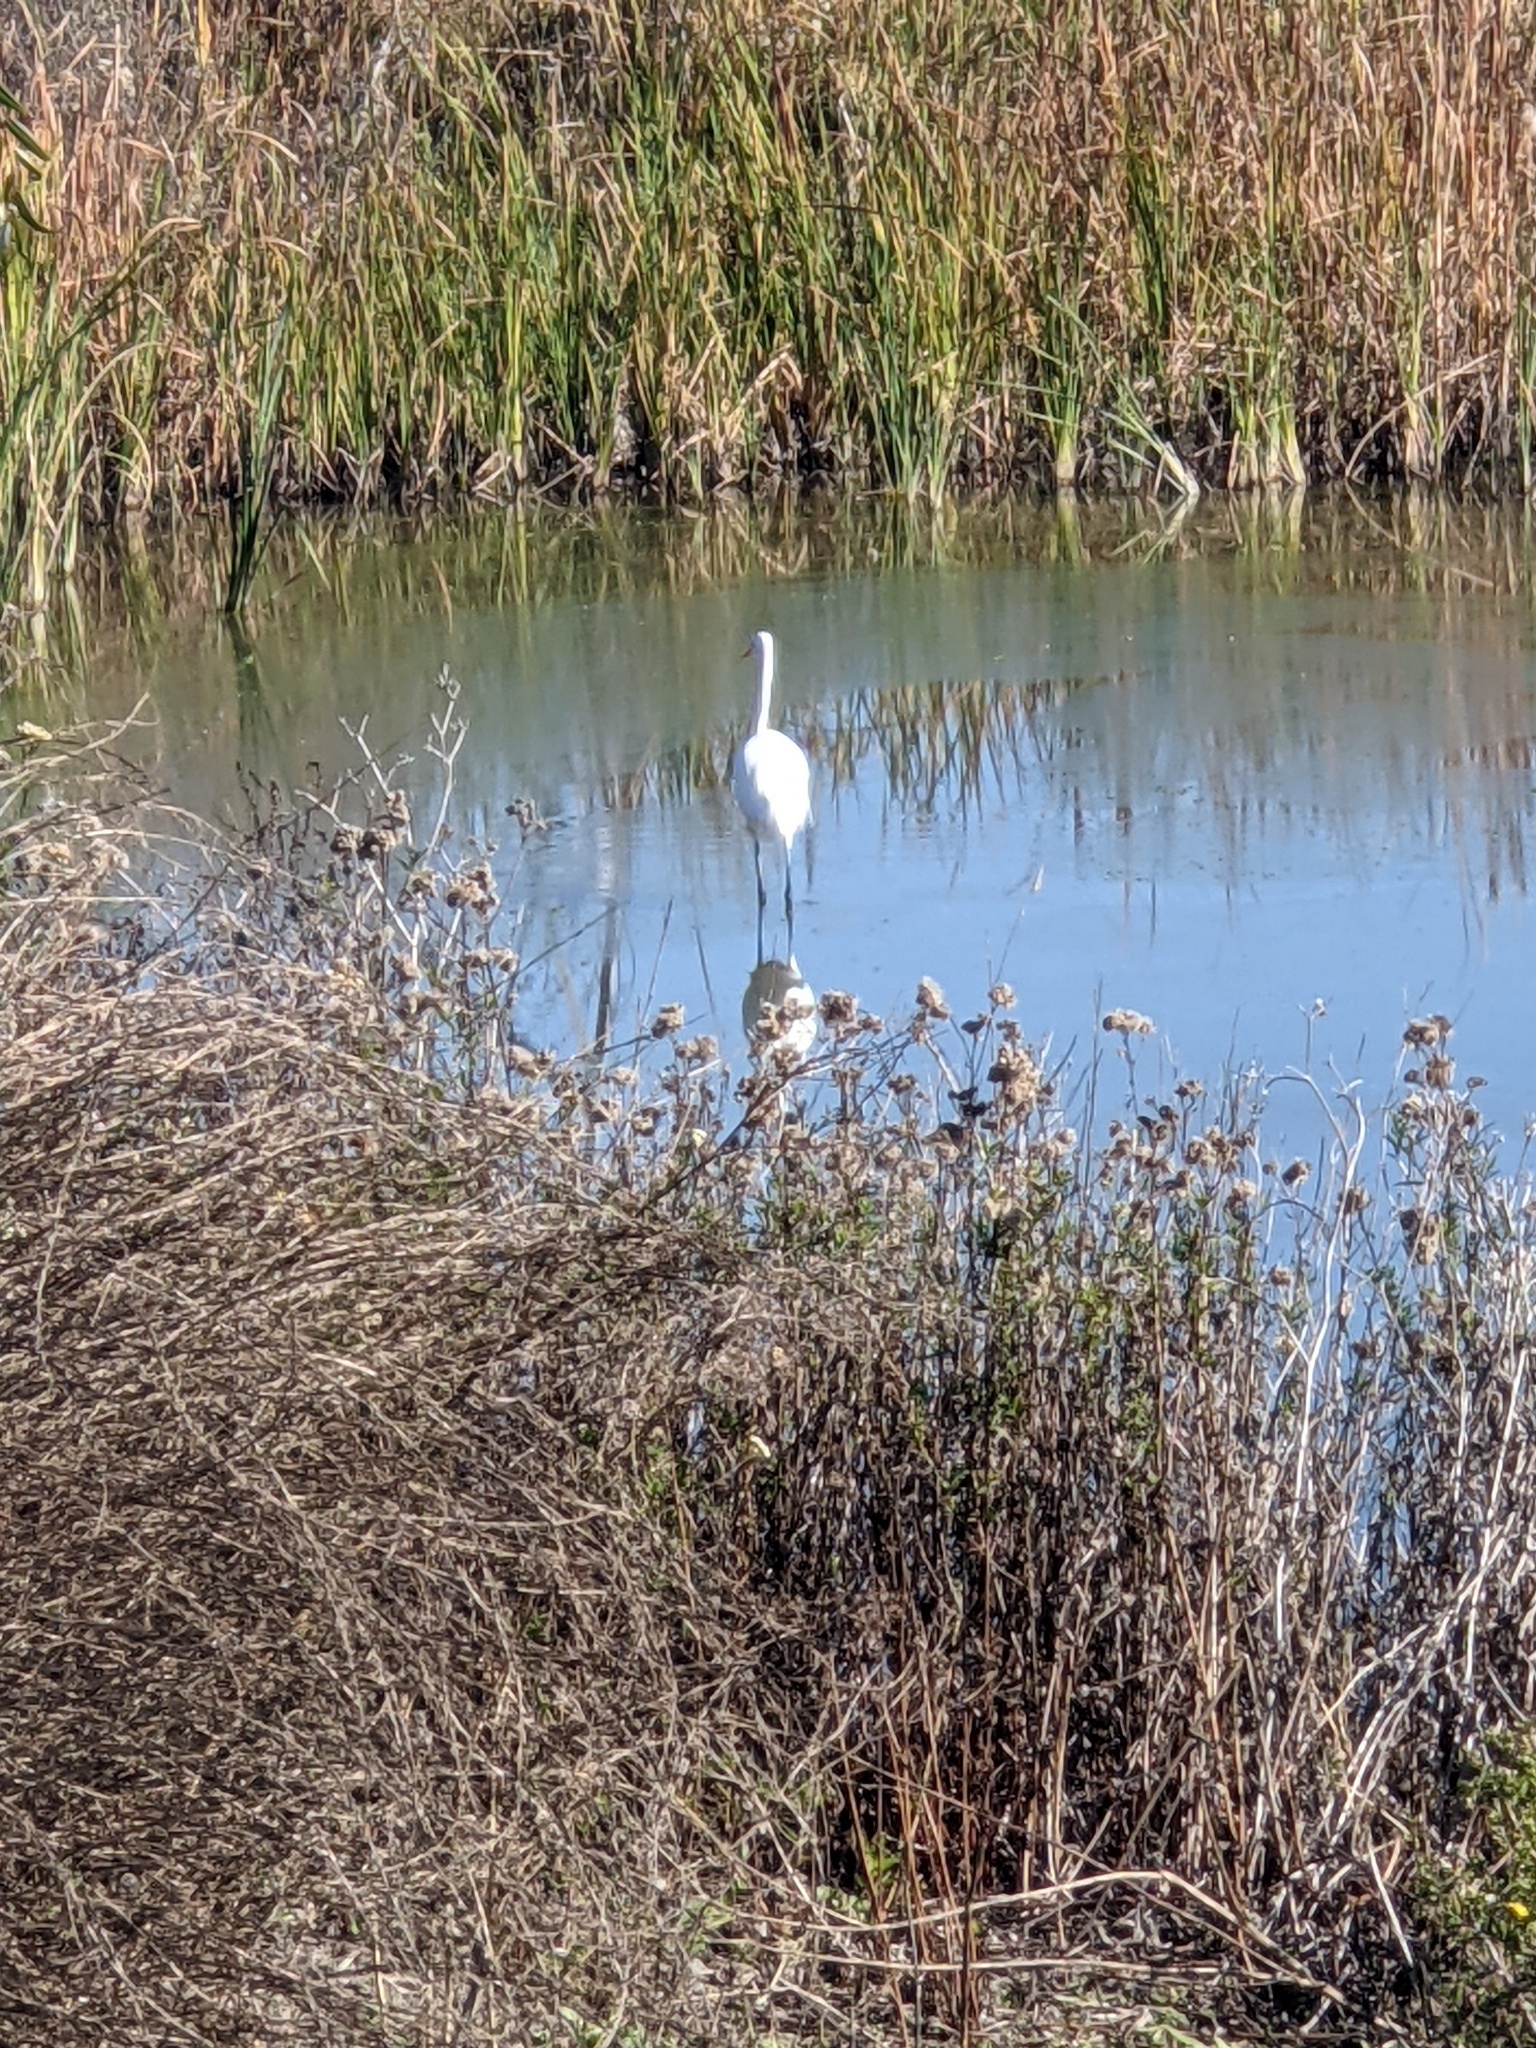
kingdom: Animalia
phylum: Chordata
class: Aves
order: Pelecaniformes
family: Ardeidae
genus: Ardea
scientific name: Ardea alba
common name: Great egret
